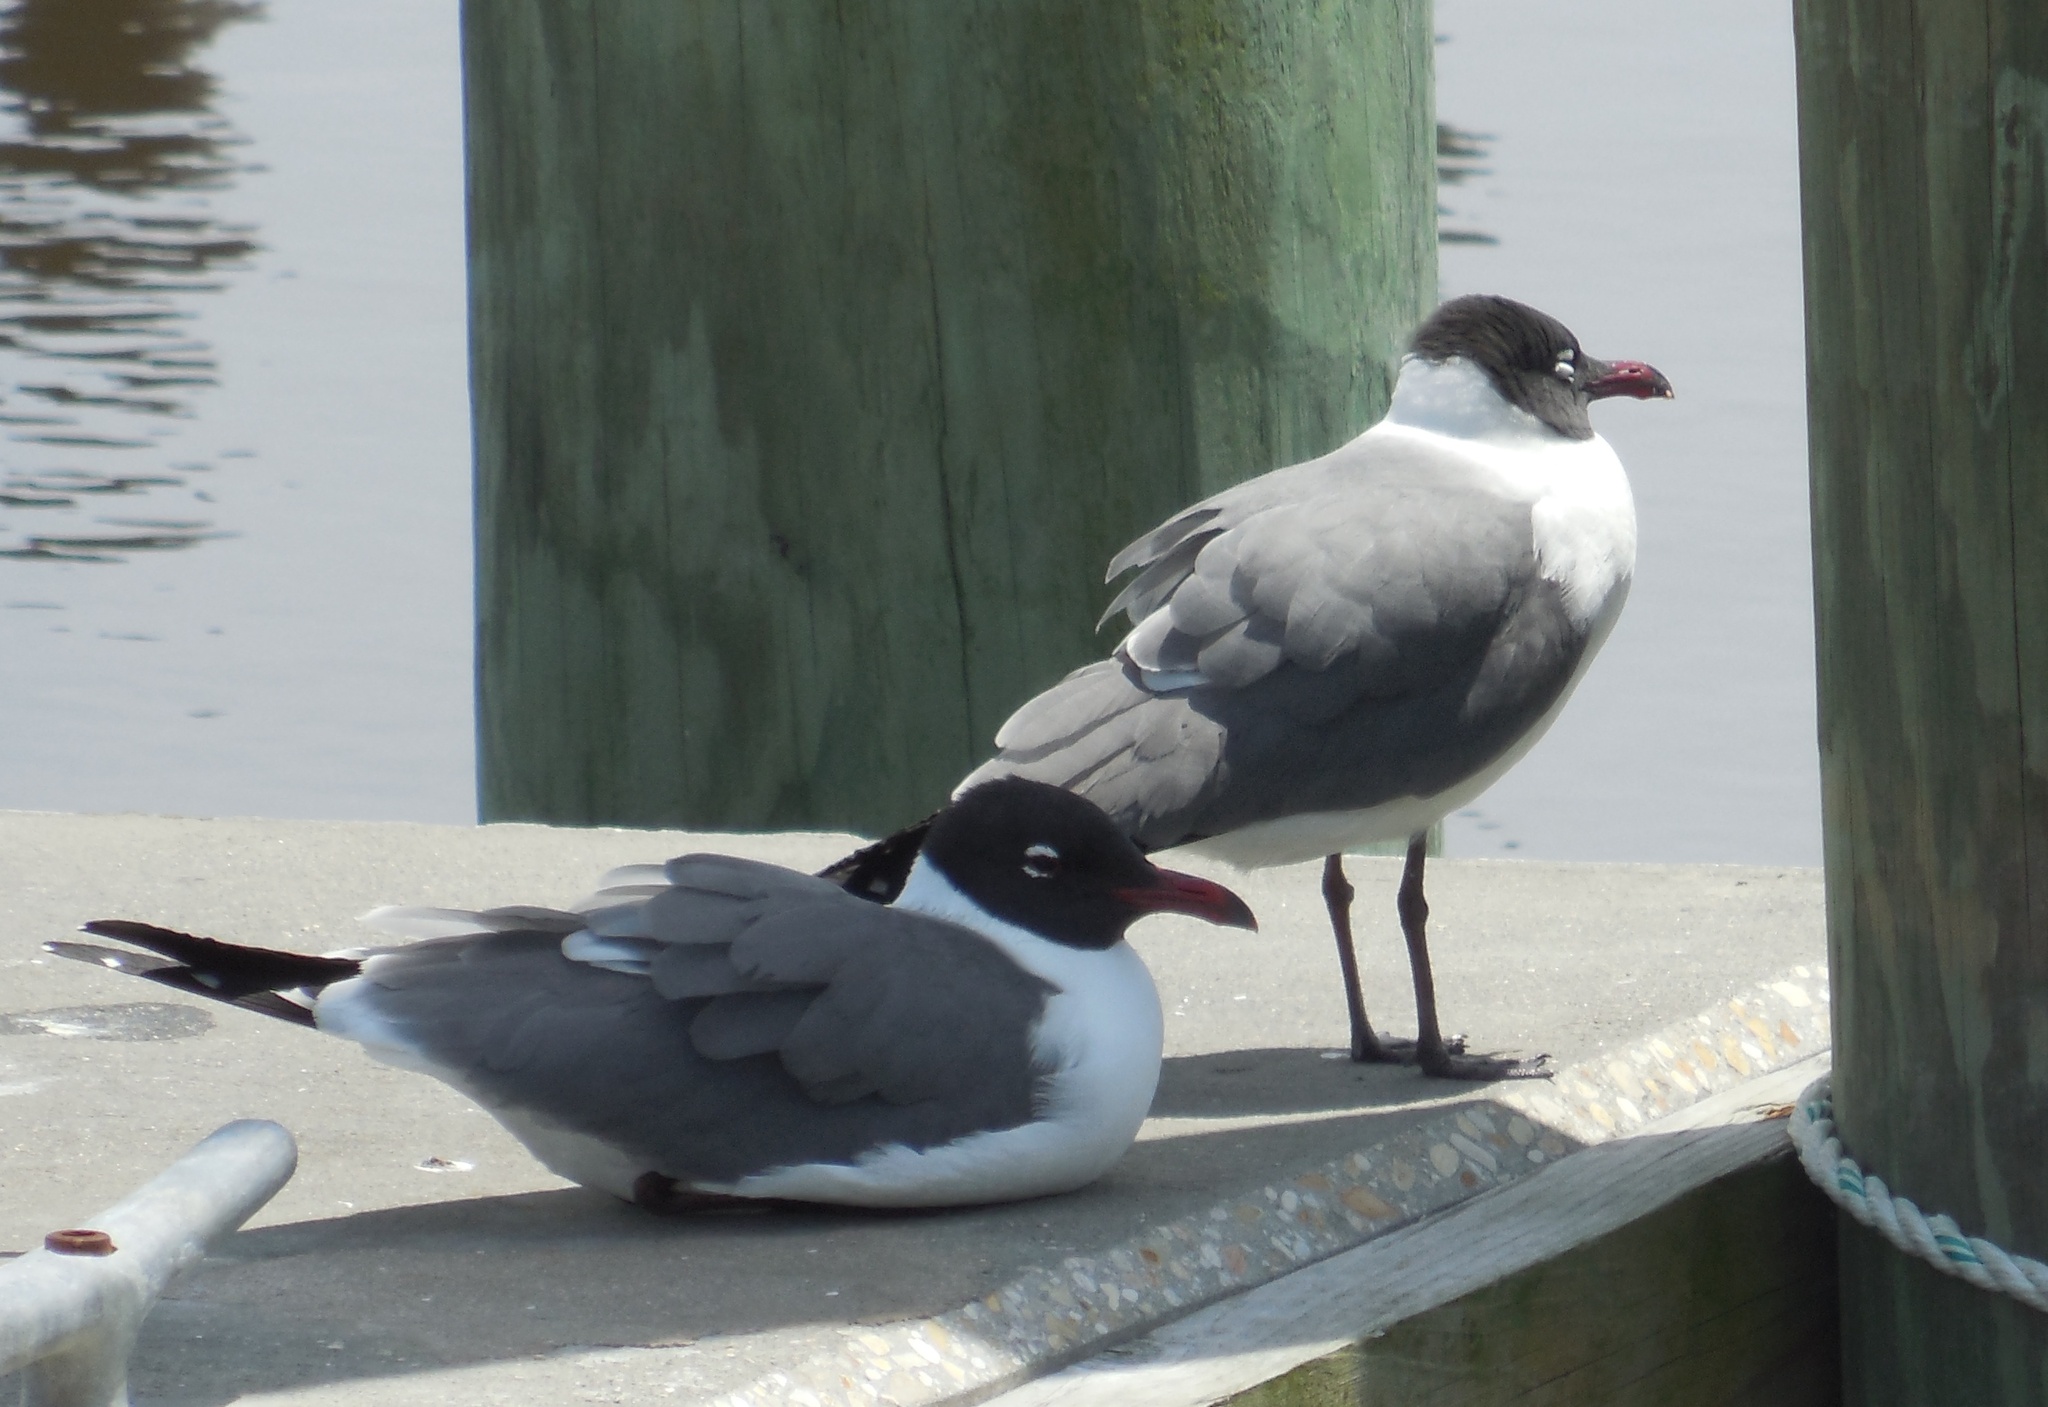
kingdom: Animalia
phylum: Chordata
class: Aves
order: Charadriiformes
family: Laridae
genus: Leucophaeus
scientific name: Leucophaeus atricilla
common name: Laughing gull
